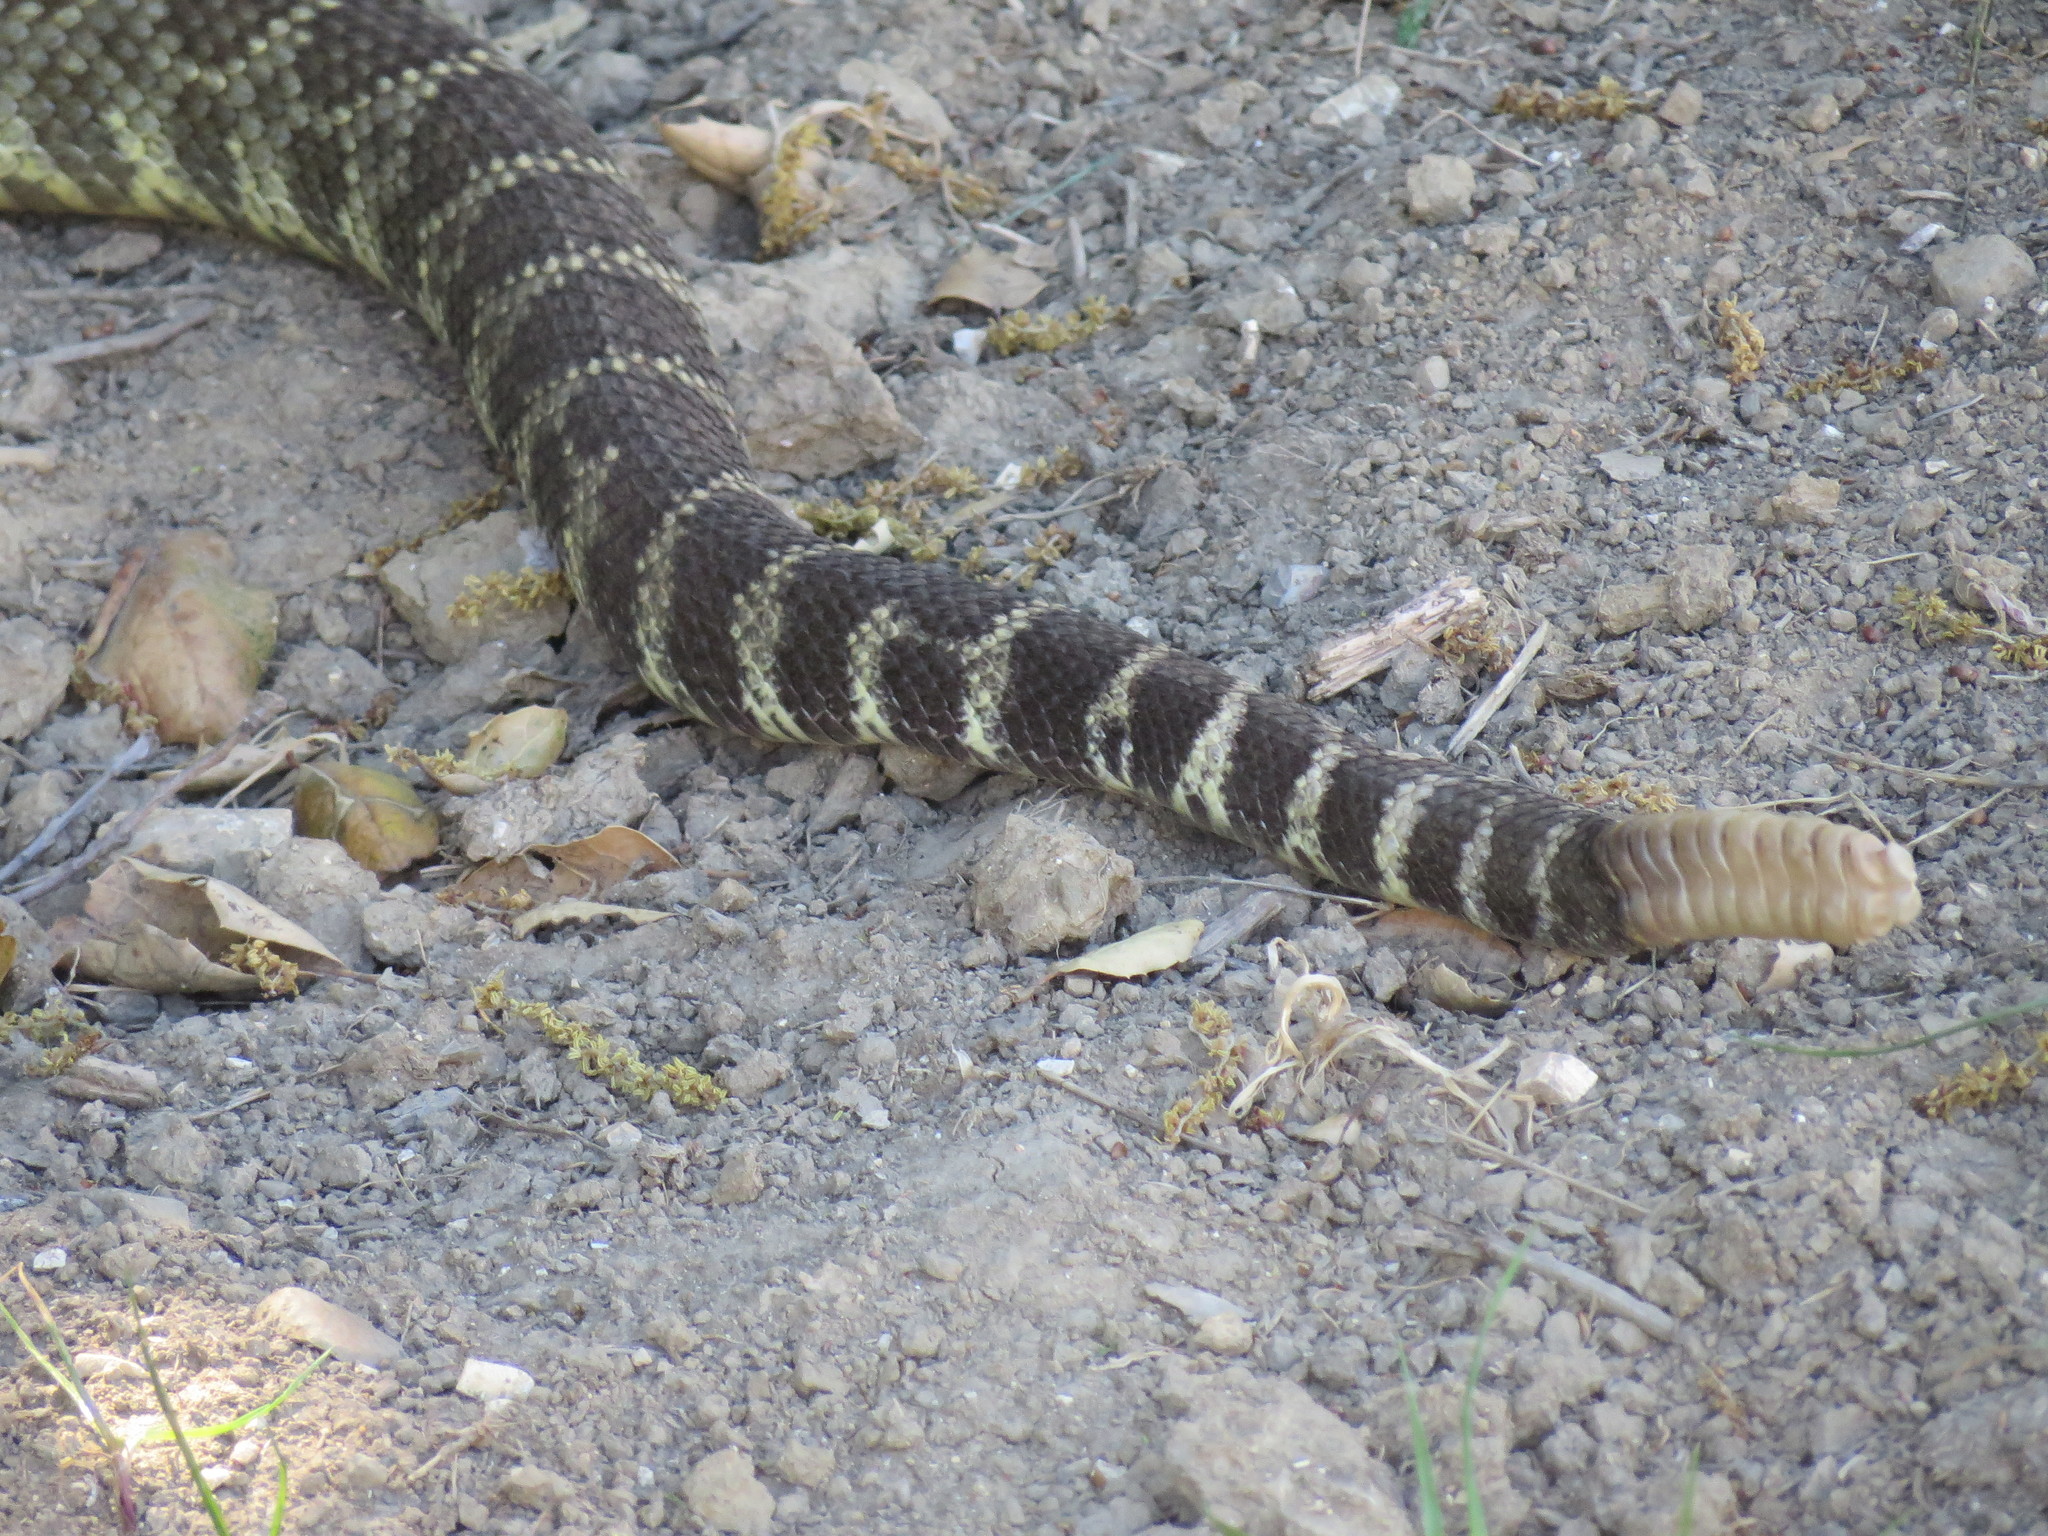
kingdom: Animalia
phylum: Chordata
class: Squamata
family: Viperidae
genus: Crotalus
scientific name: Crotalus oreganus
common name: Abyssus
